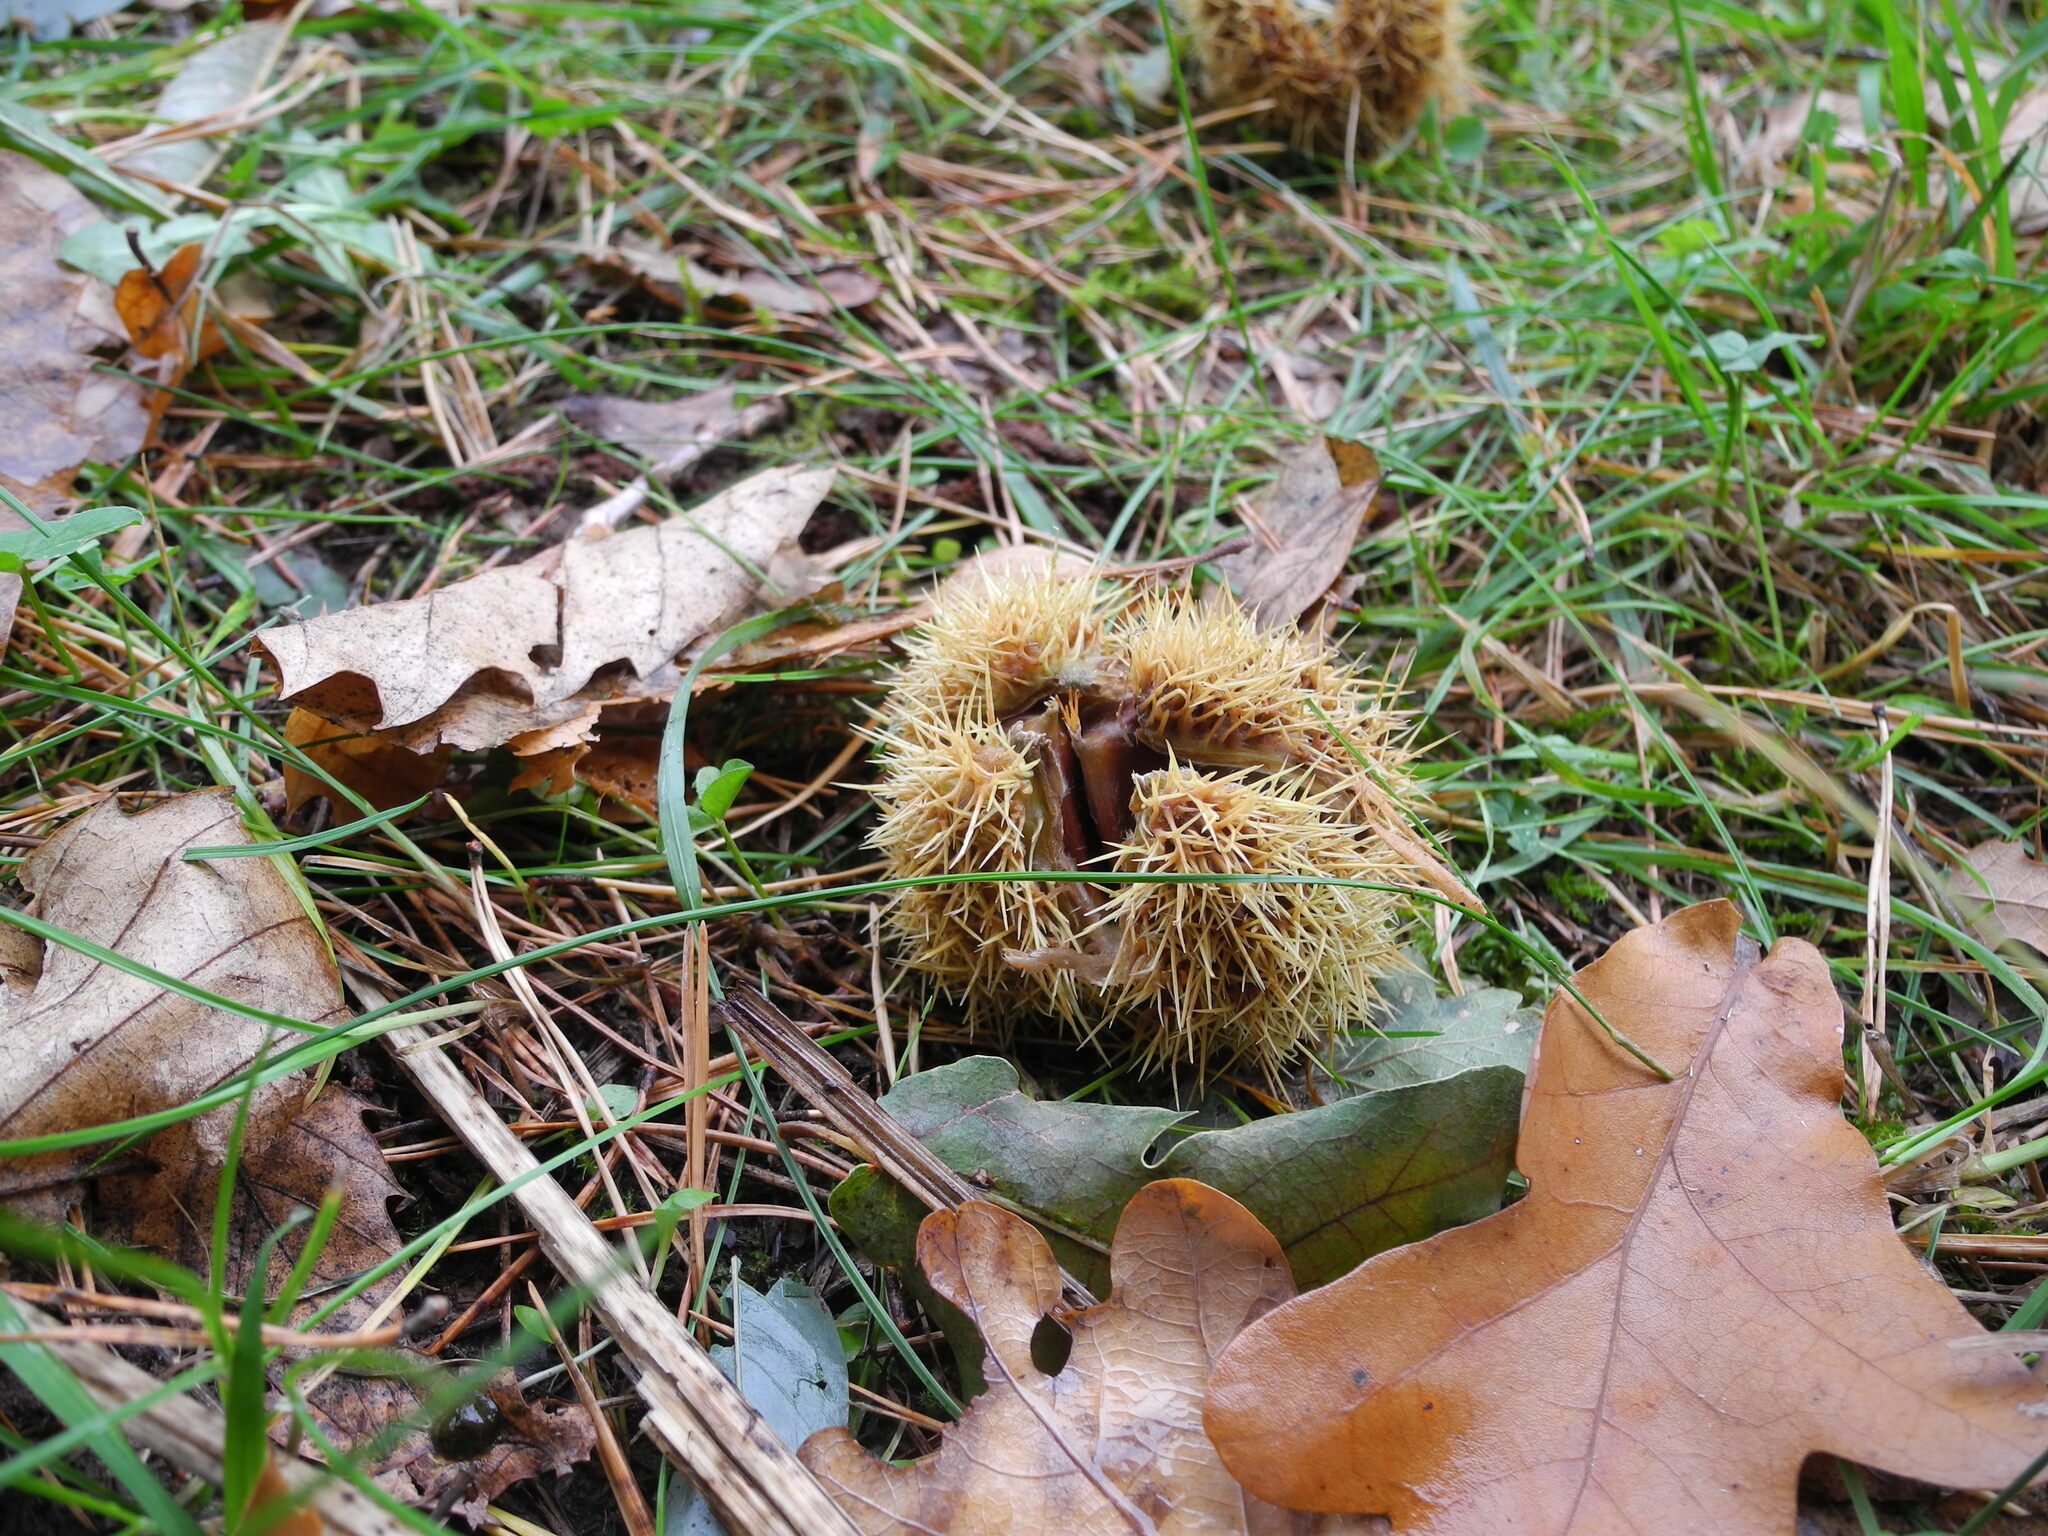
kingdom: Plantae
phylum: Tracheophyta
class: Magnoliopsida
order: Fagales
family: Fagaceae
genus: Castanea
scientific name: Castanea sativa
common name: Sweet chestnut
